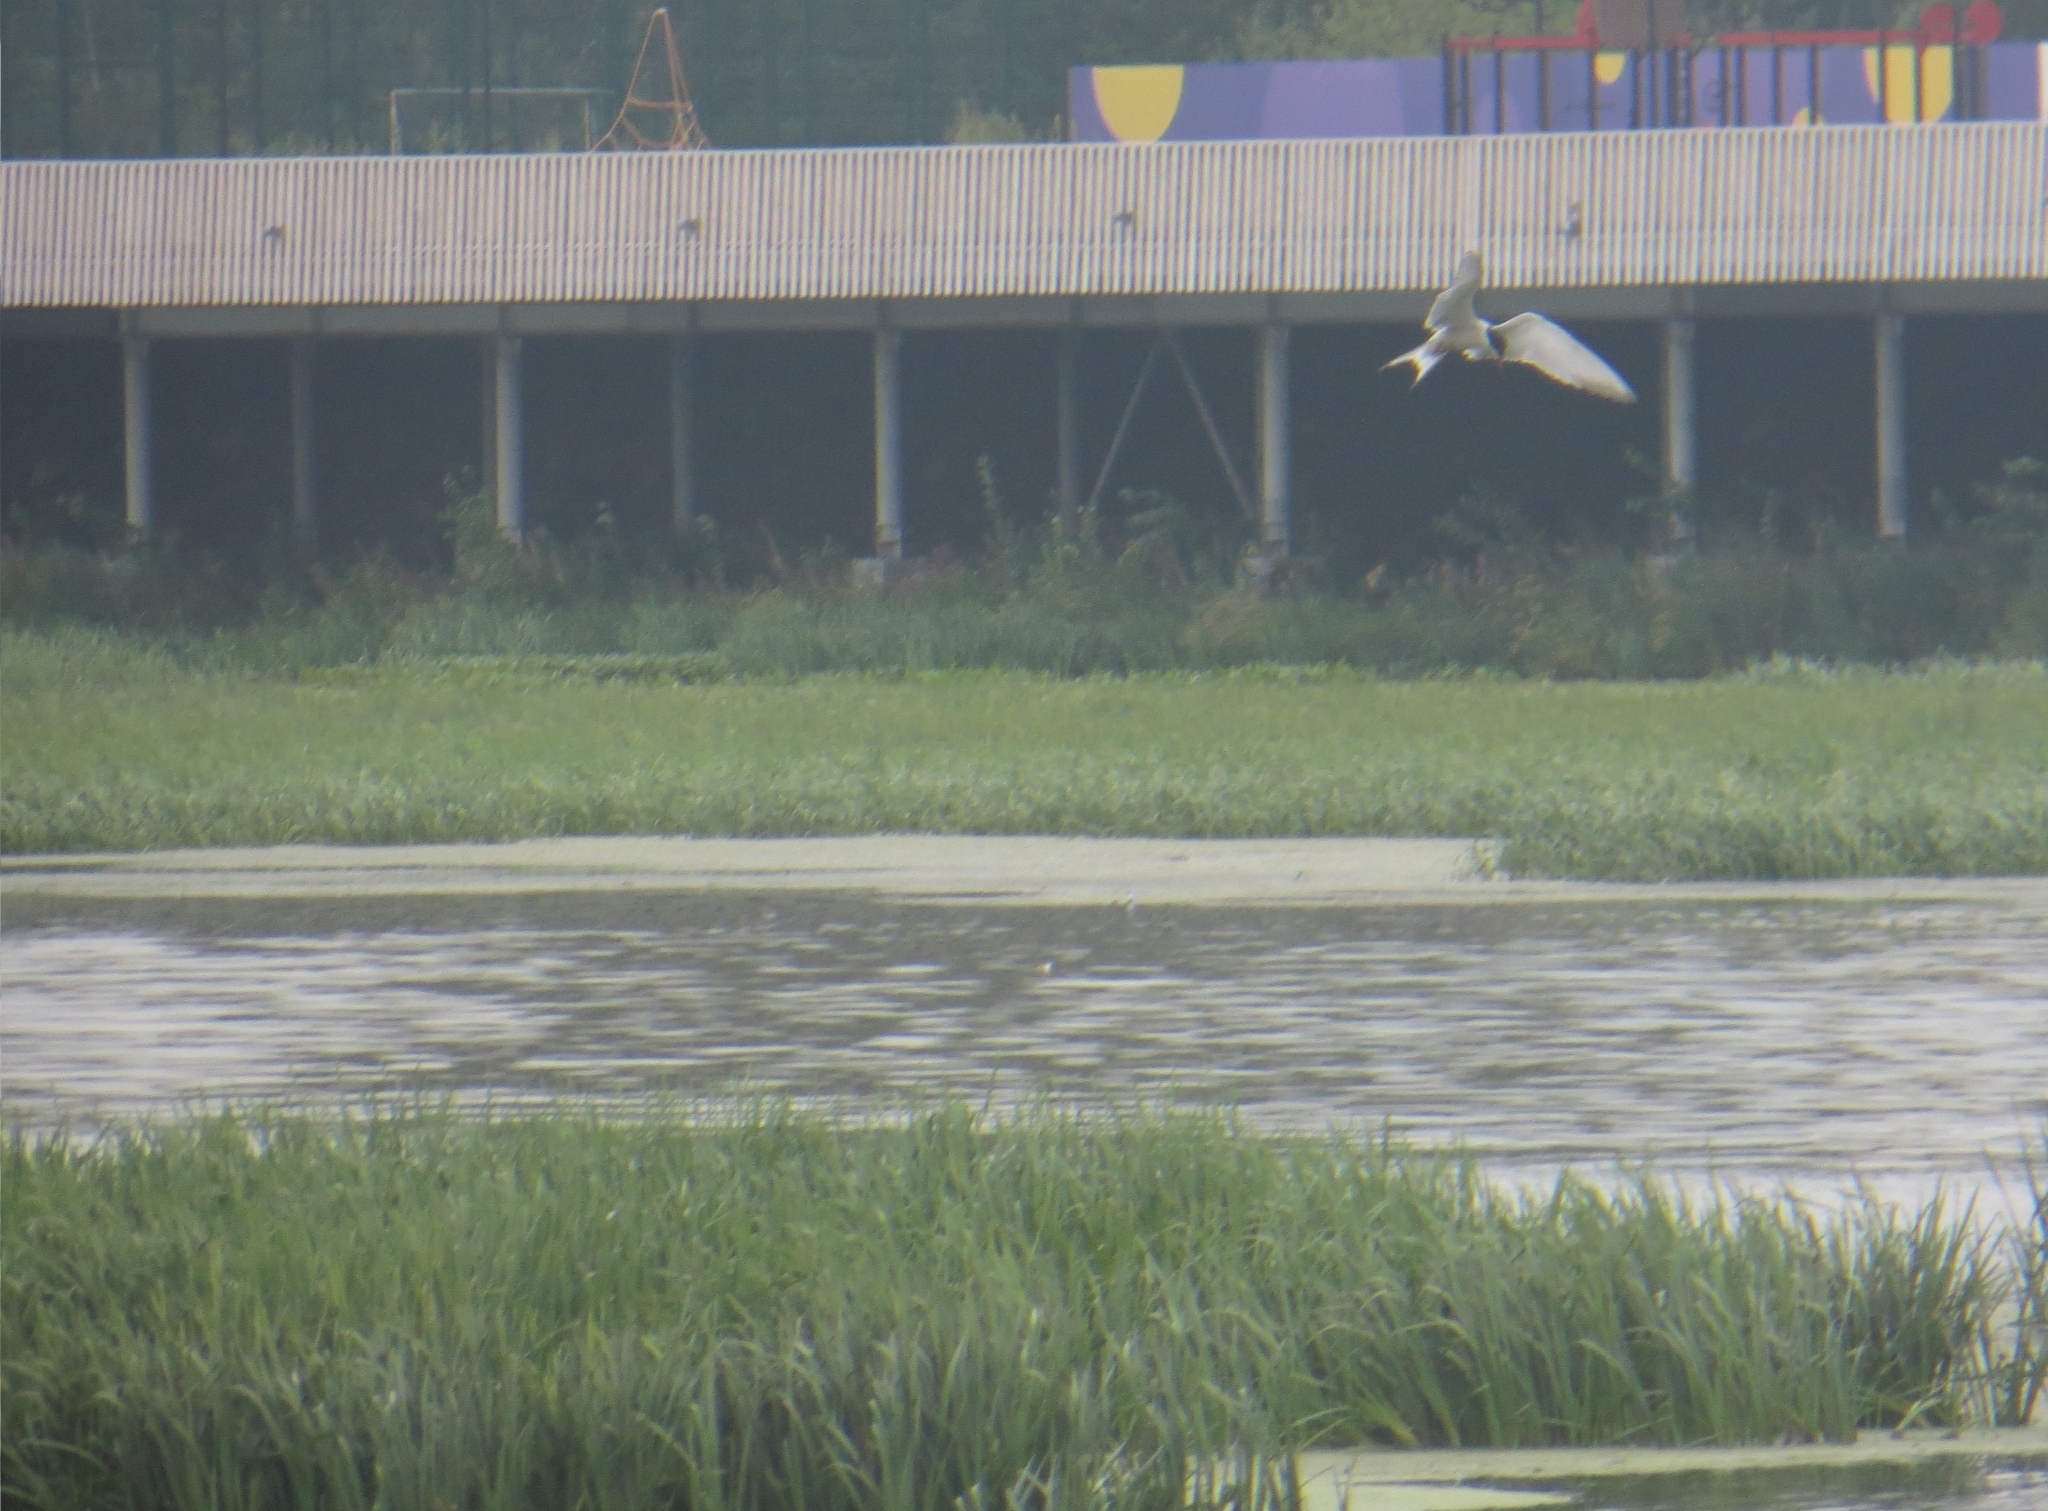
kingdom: Animalia
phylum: Chordata
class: Aves
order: Charadriiformes
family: Laridae
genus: Sterna
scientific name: Sterna hirundo
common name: Common tern
